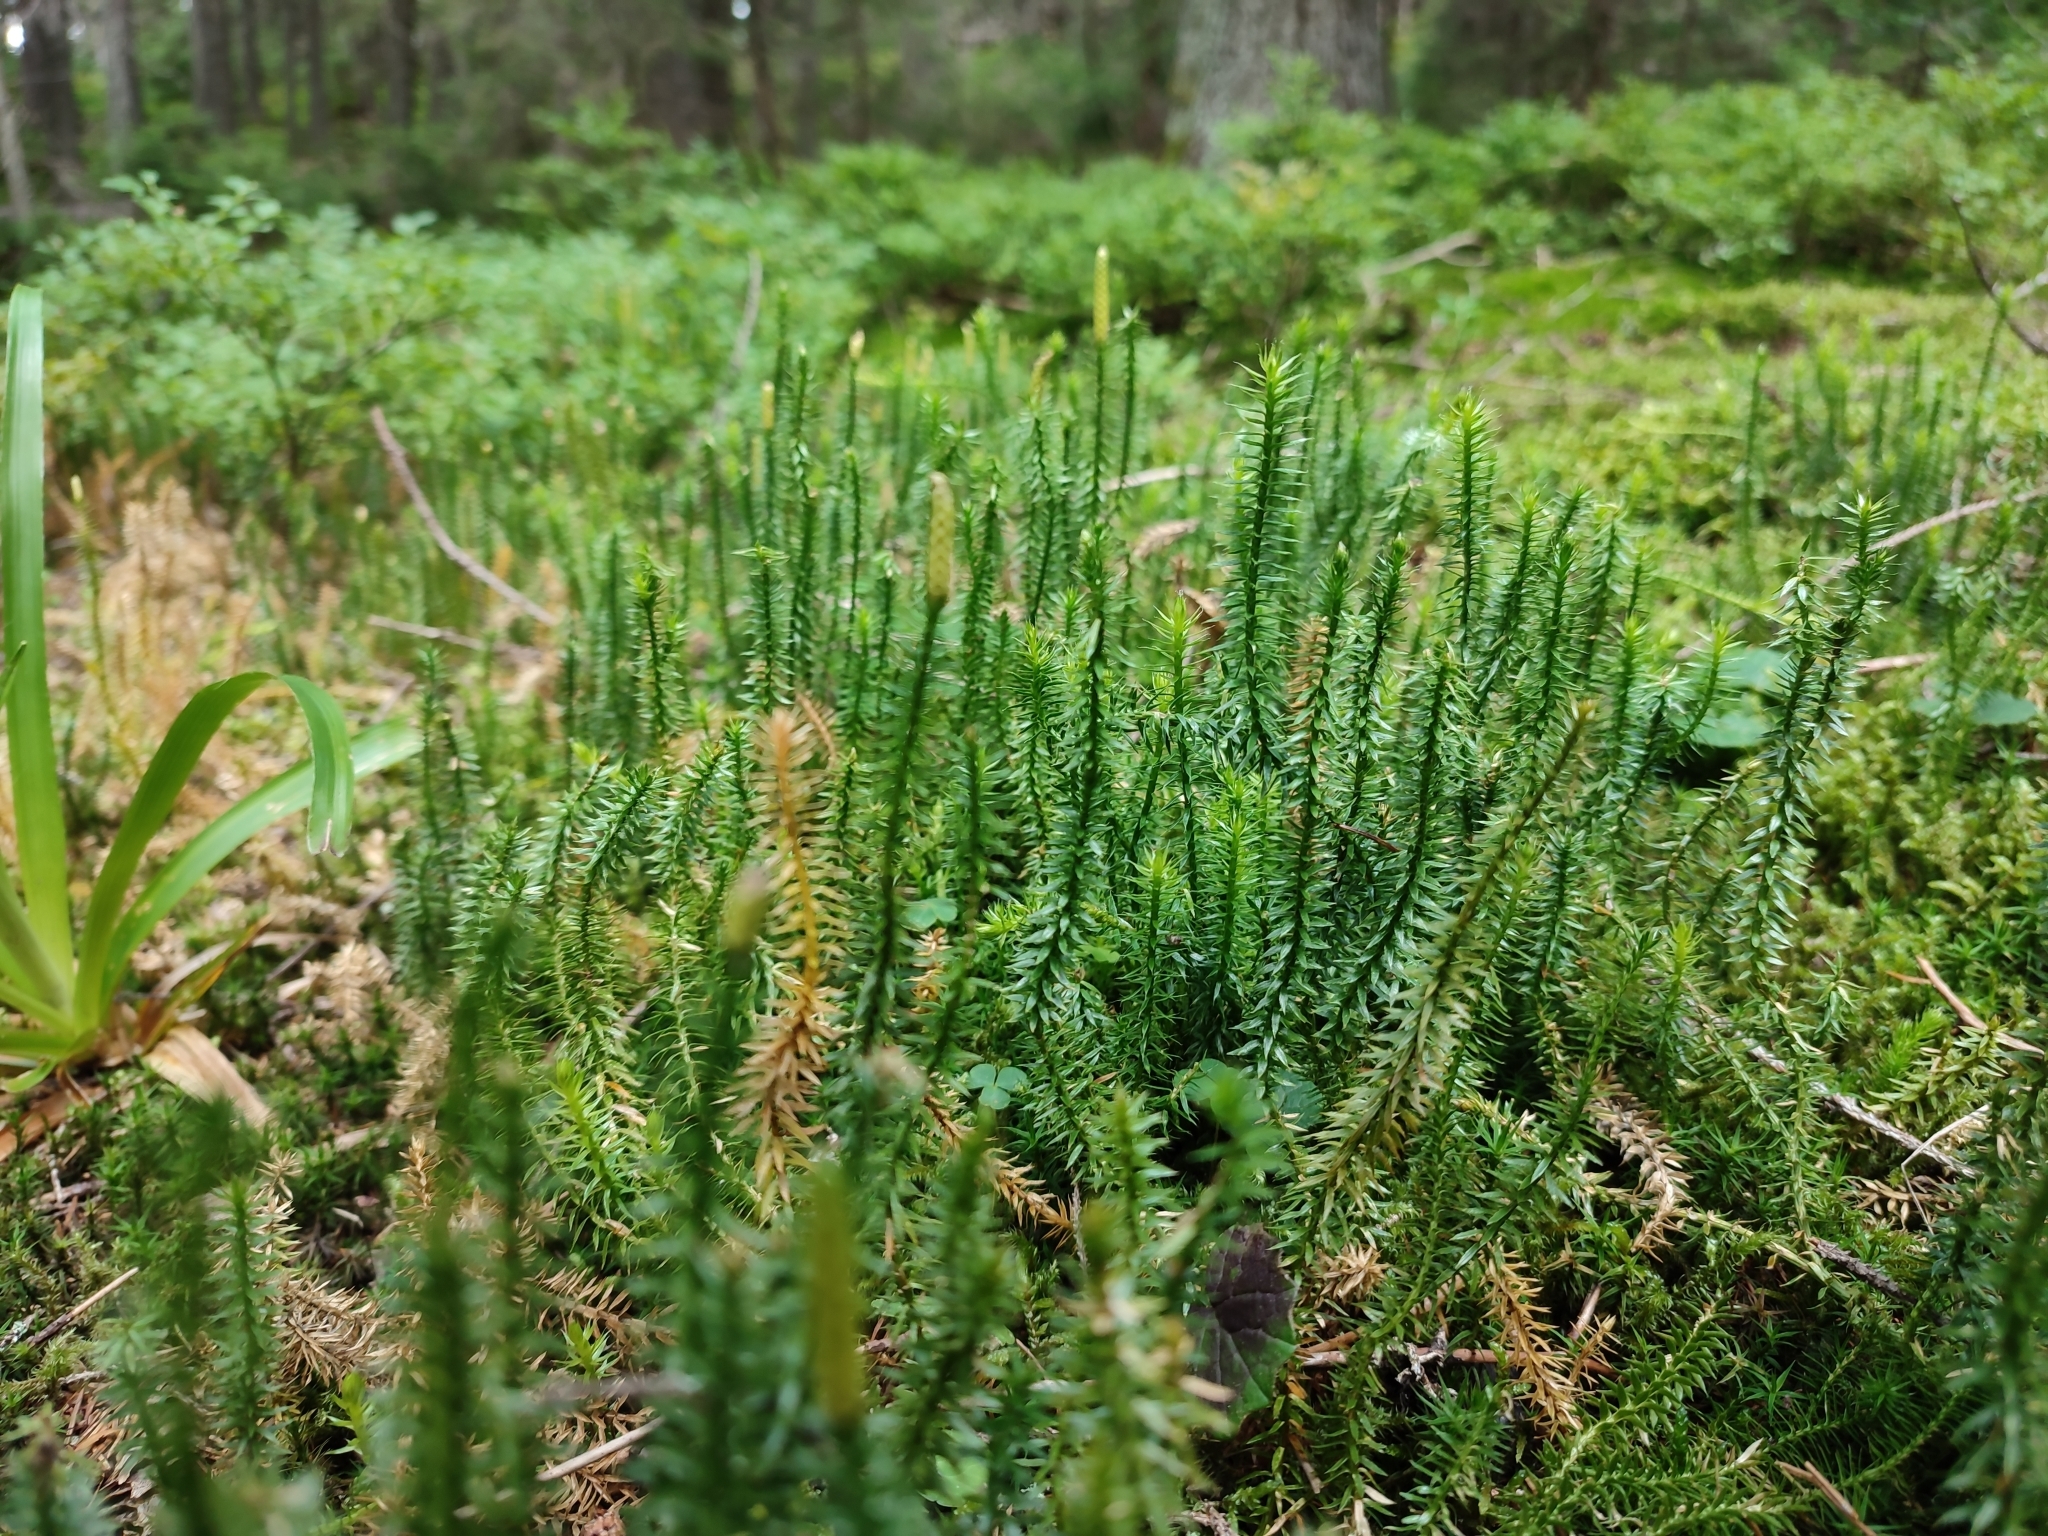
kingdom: Plantae
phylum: Tracheophyta
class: Lycopodiopsida
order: Lycopodiales
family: Lycopodiaceae
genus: Spinulum
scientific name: Spinulum annotinum
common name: Interrupted club-moss
